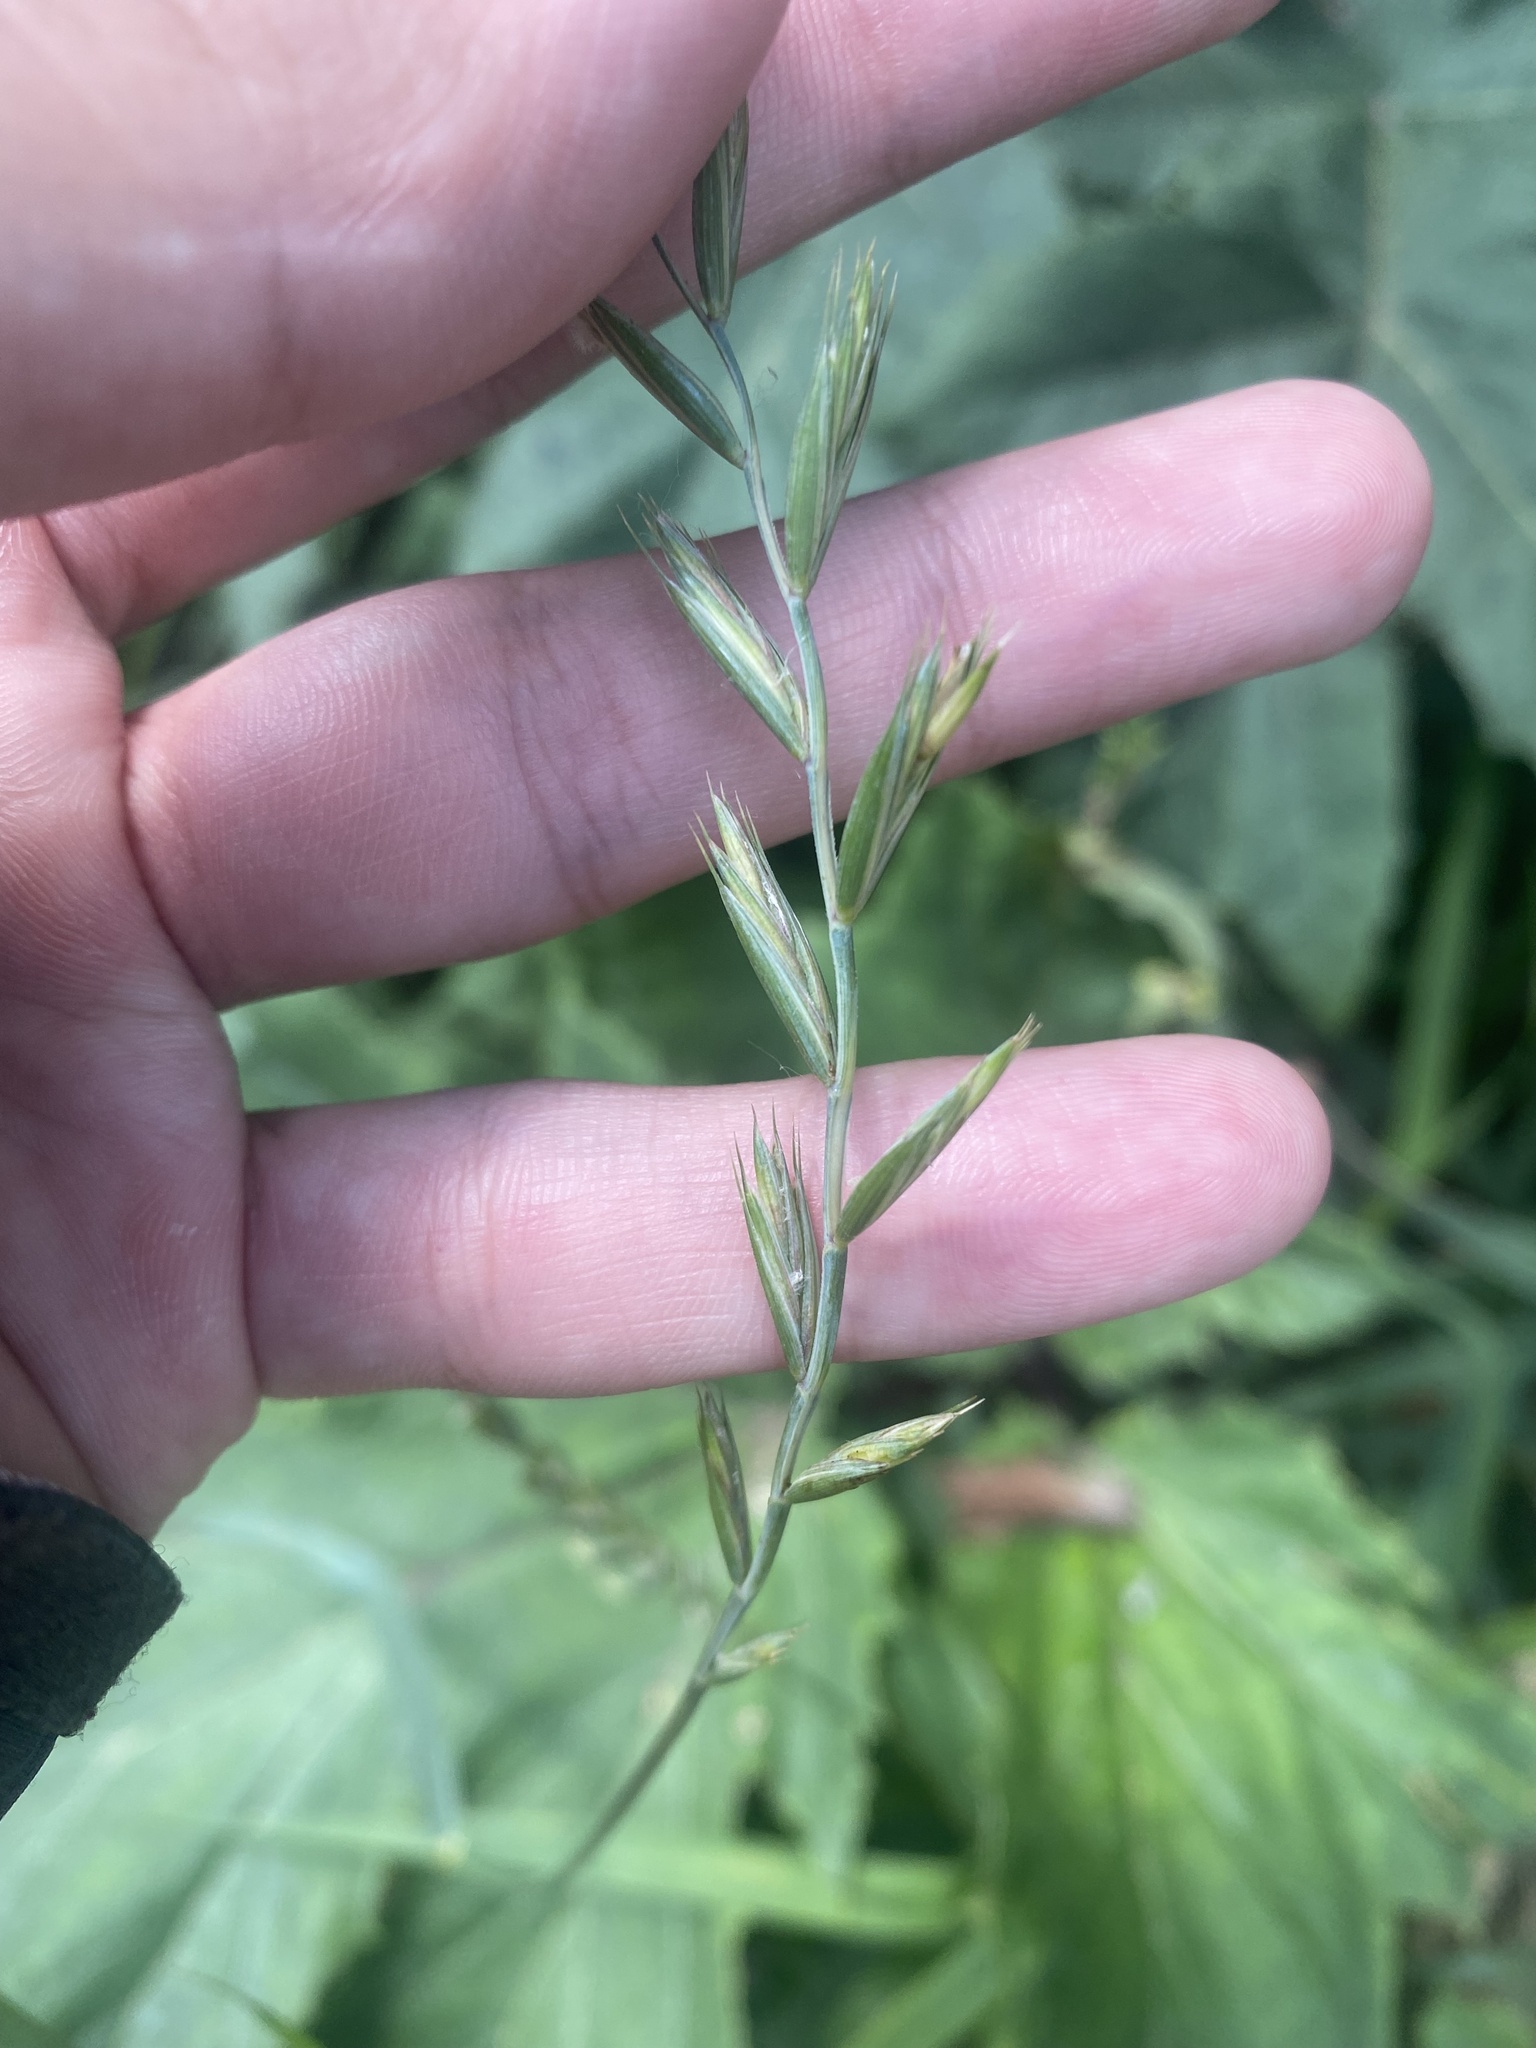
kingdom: Plantae
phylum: Tracheophyta
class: Liliopsida
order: Poales
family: Poaceae
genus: Elymus
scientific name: Elymus repens
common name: Quackgrass
